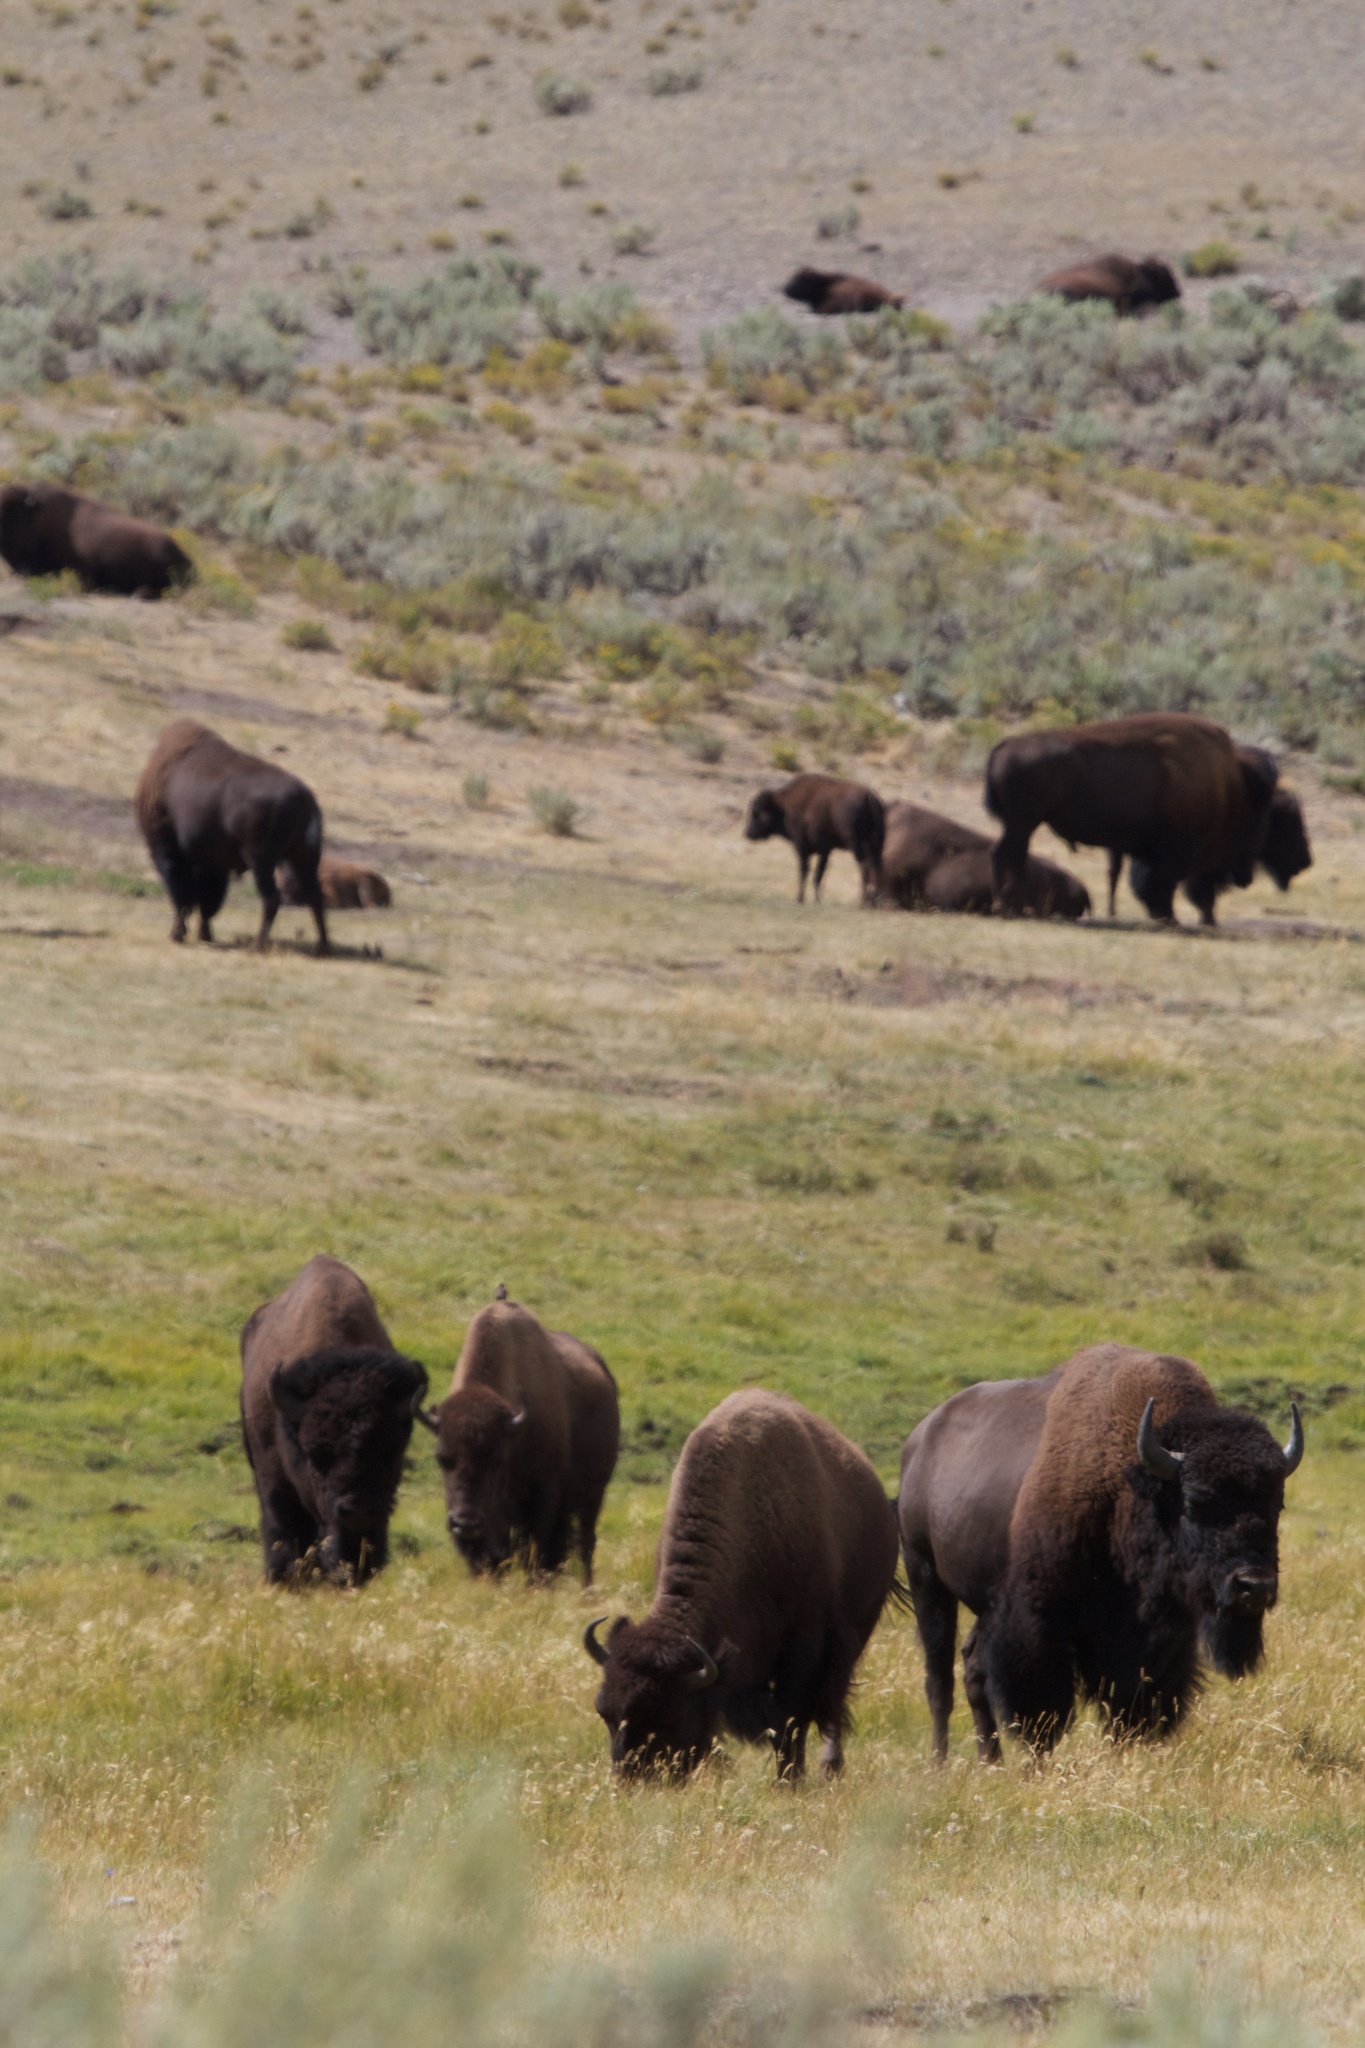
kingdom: Animalia
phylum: Chordata
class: Mammalia
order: Artiodactyla
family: Bovidae
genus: Bison
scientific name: Bison bison
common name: American bison
